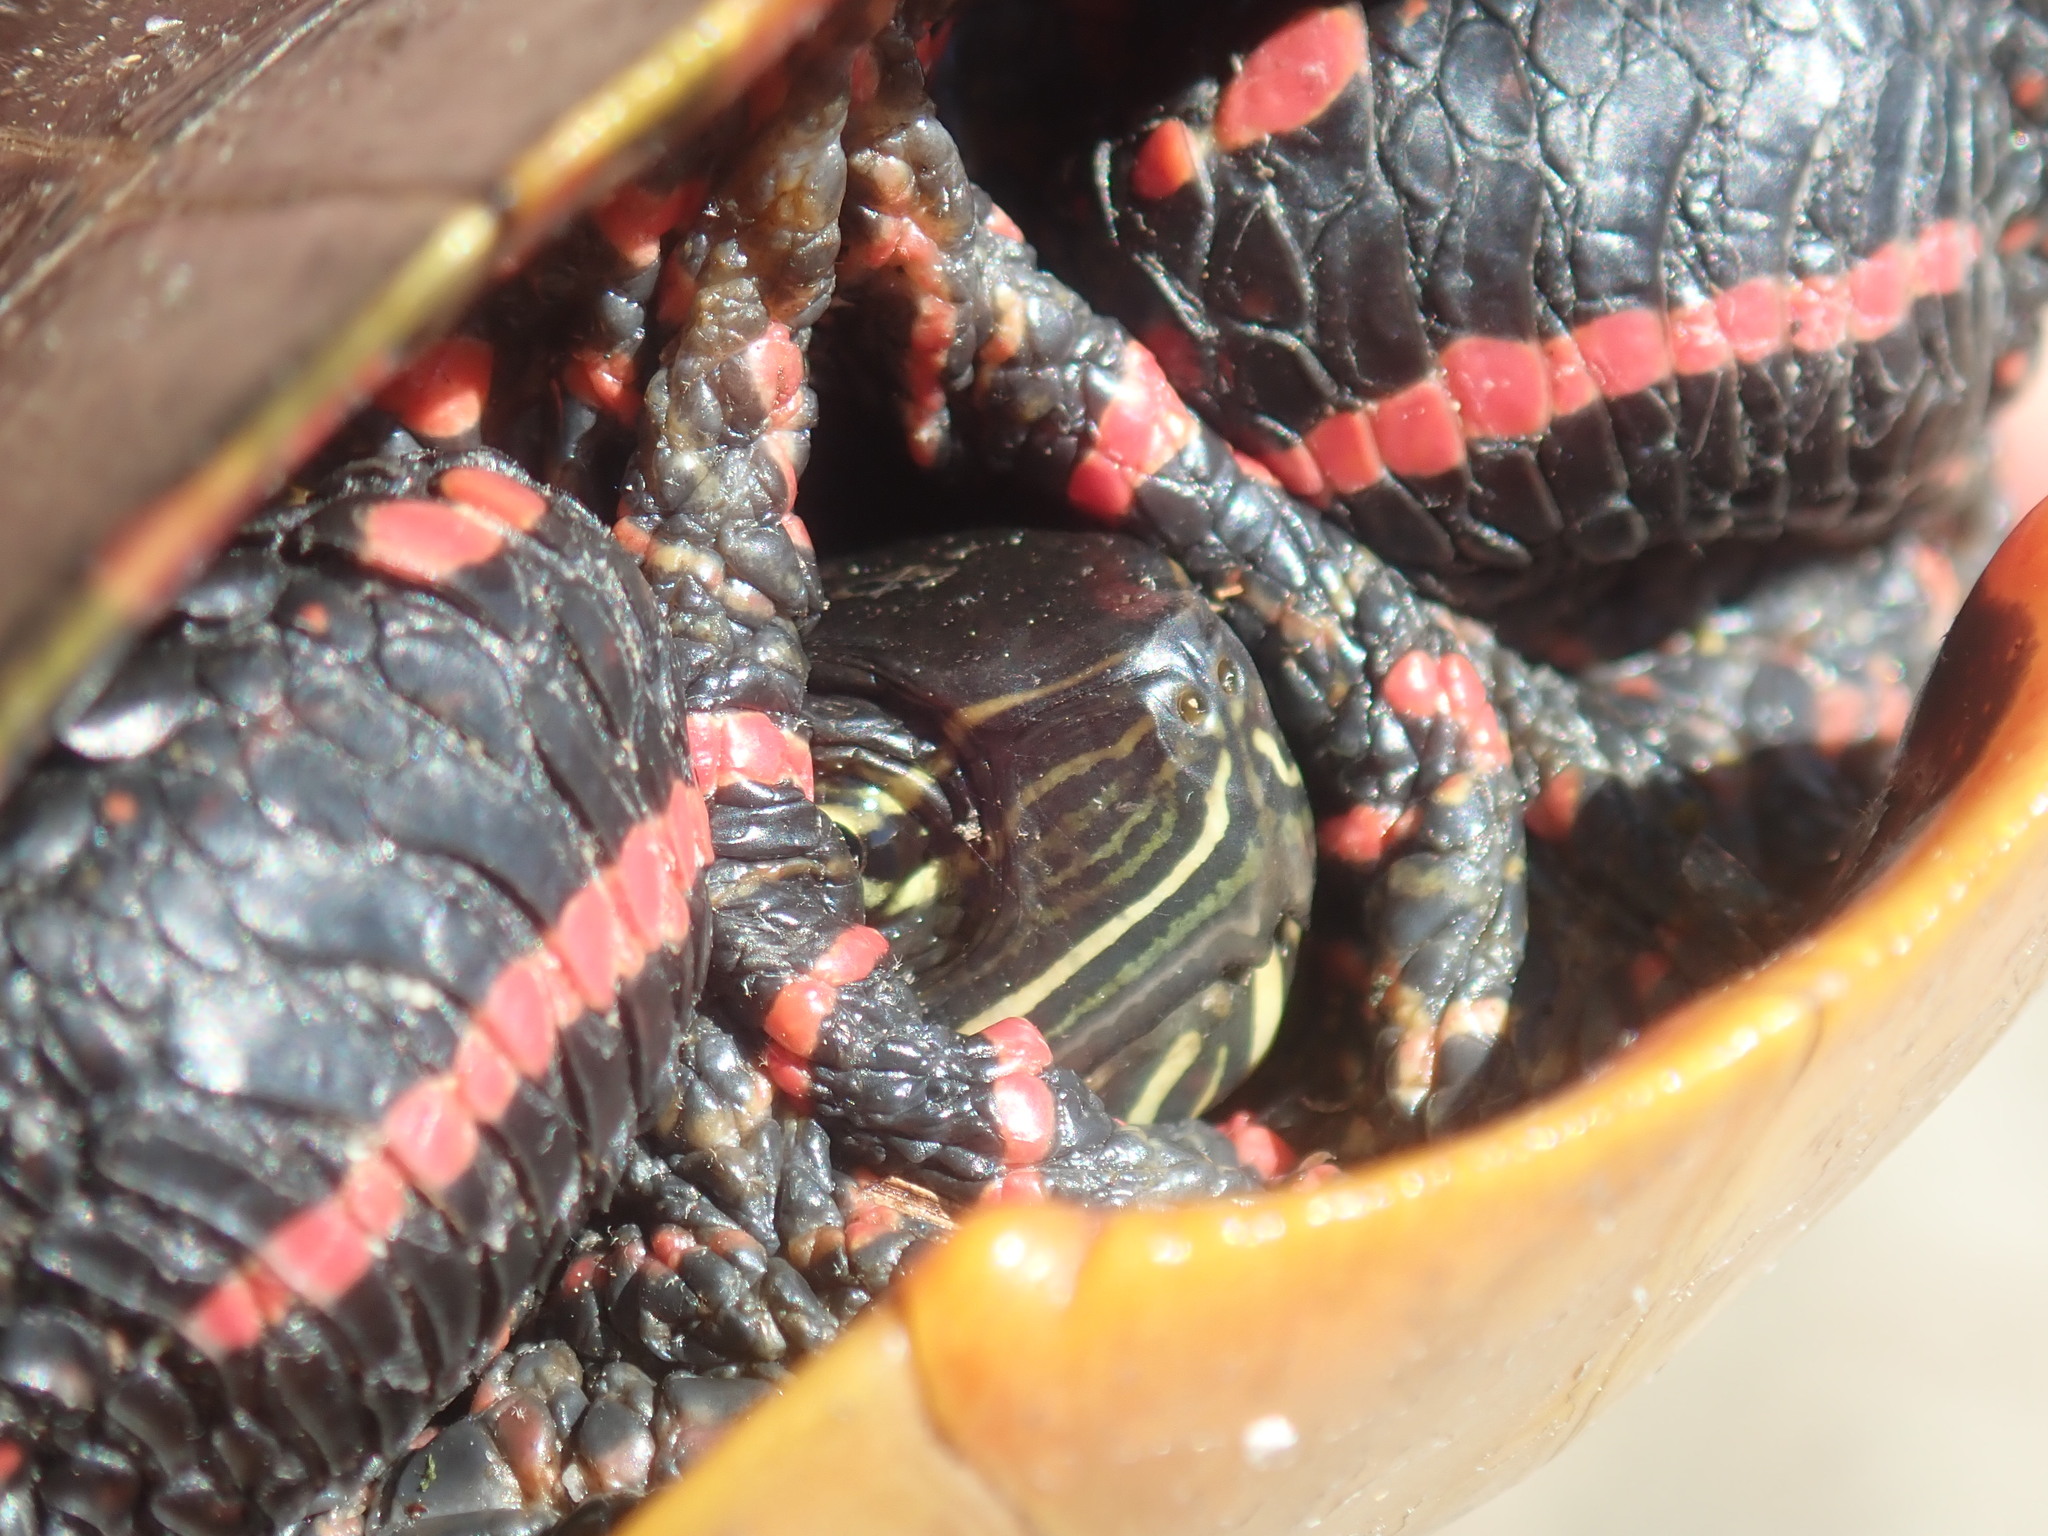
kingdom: Animalia
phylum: Chordata
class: Testudines
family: Emydidae
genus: Chrysemys
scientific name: Chrysemys picta
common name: Painted turtle
